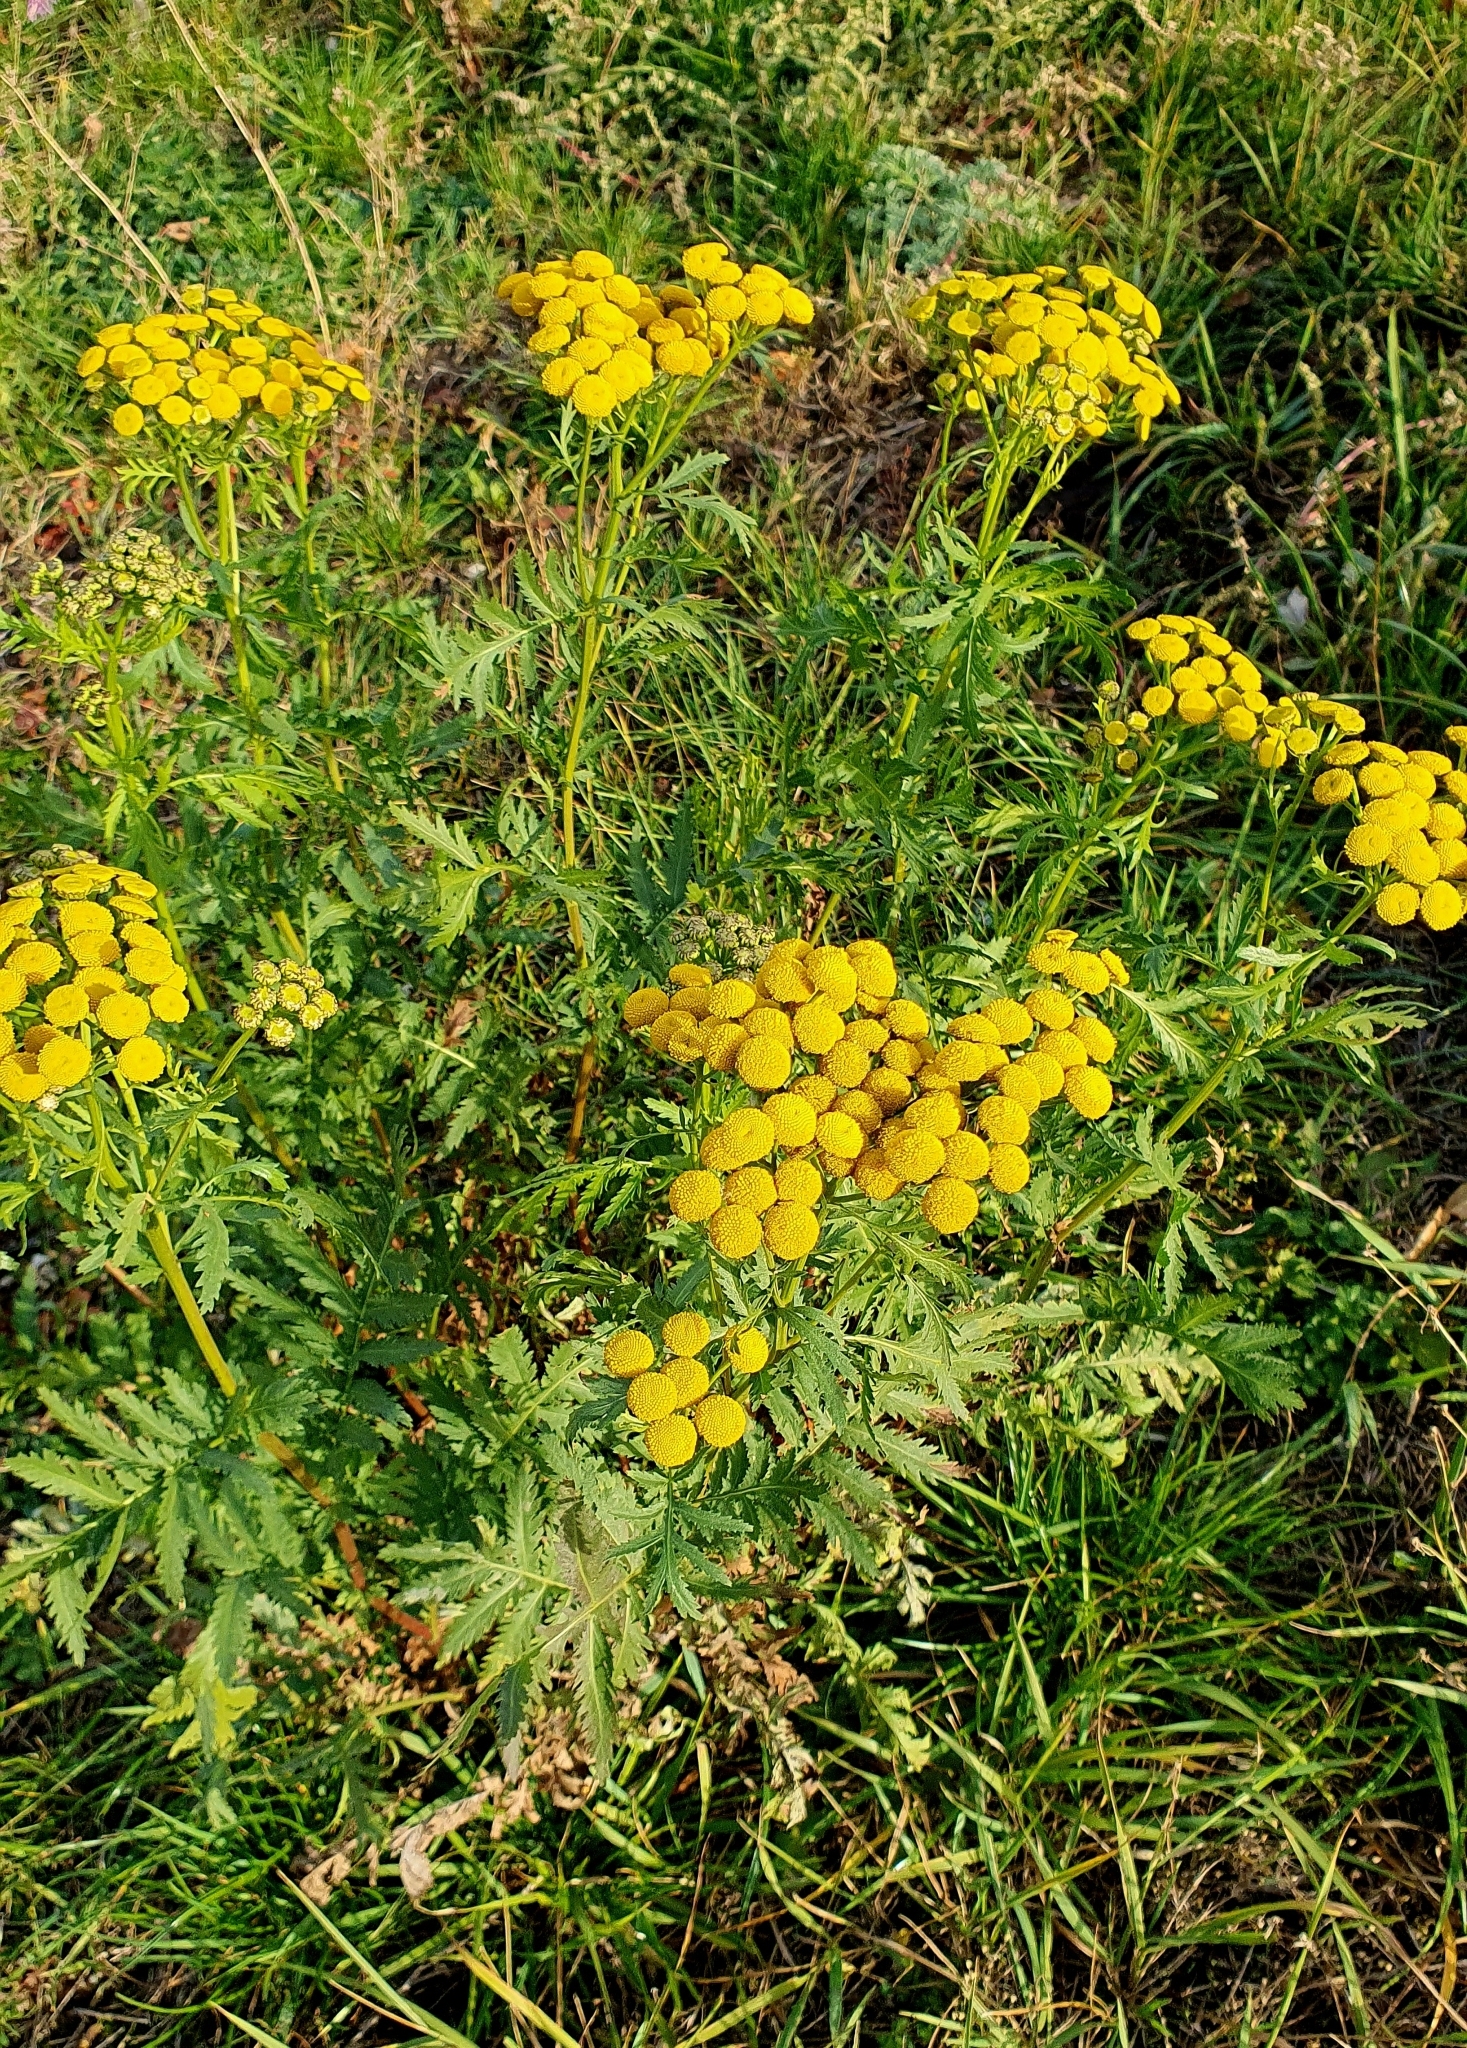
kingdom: Plantae
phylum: Tracheophyta
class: Magnoliopsida
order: Asterales
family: Asteraceae
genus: Tanacetum
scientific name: Tanacetum vulgare
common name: Common tansy
